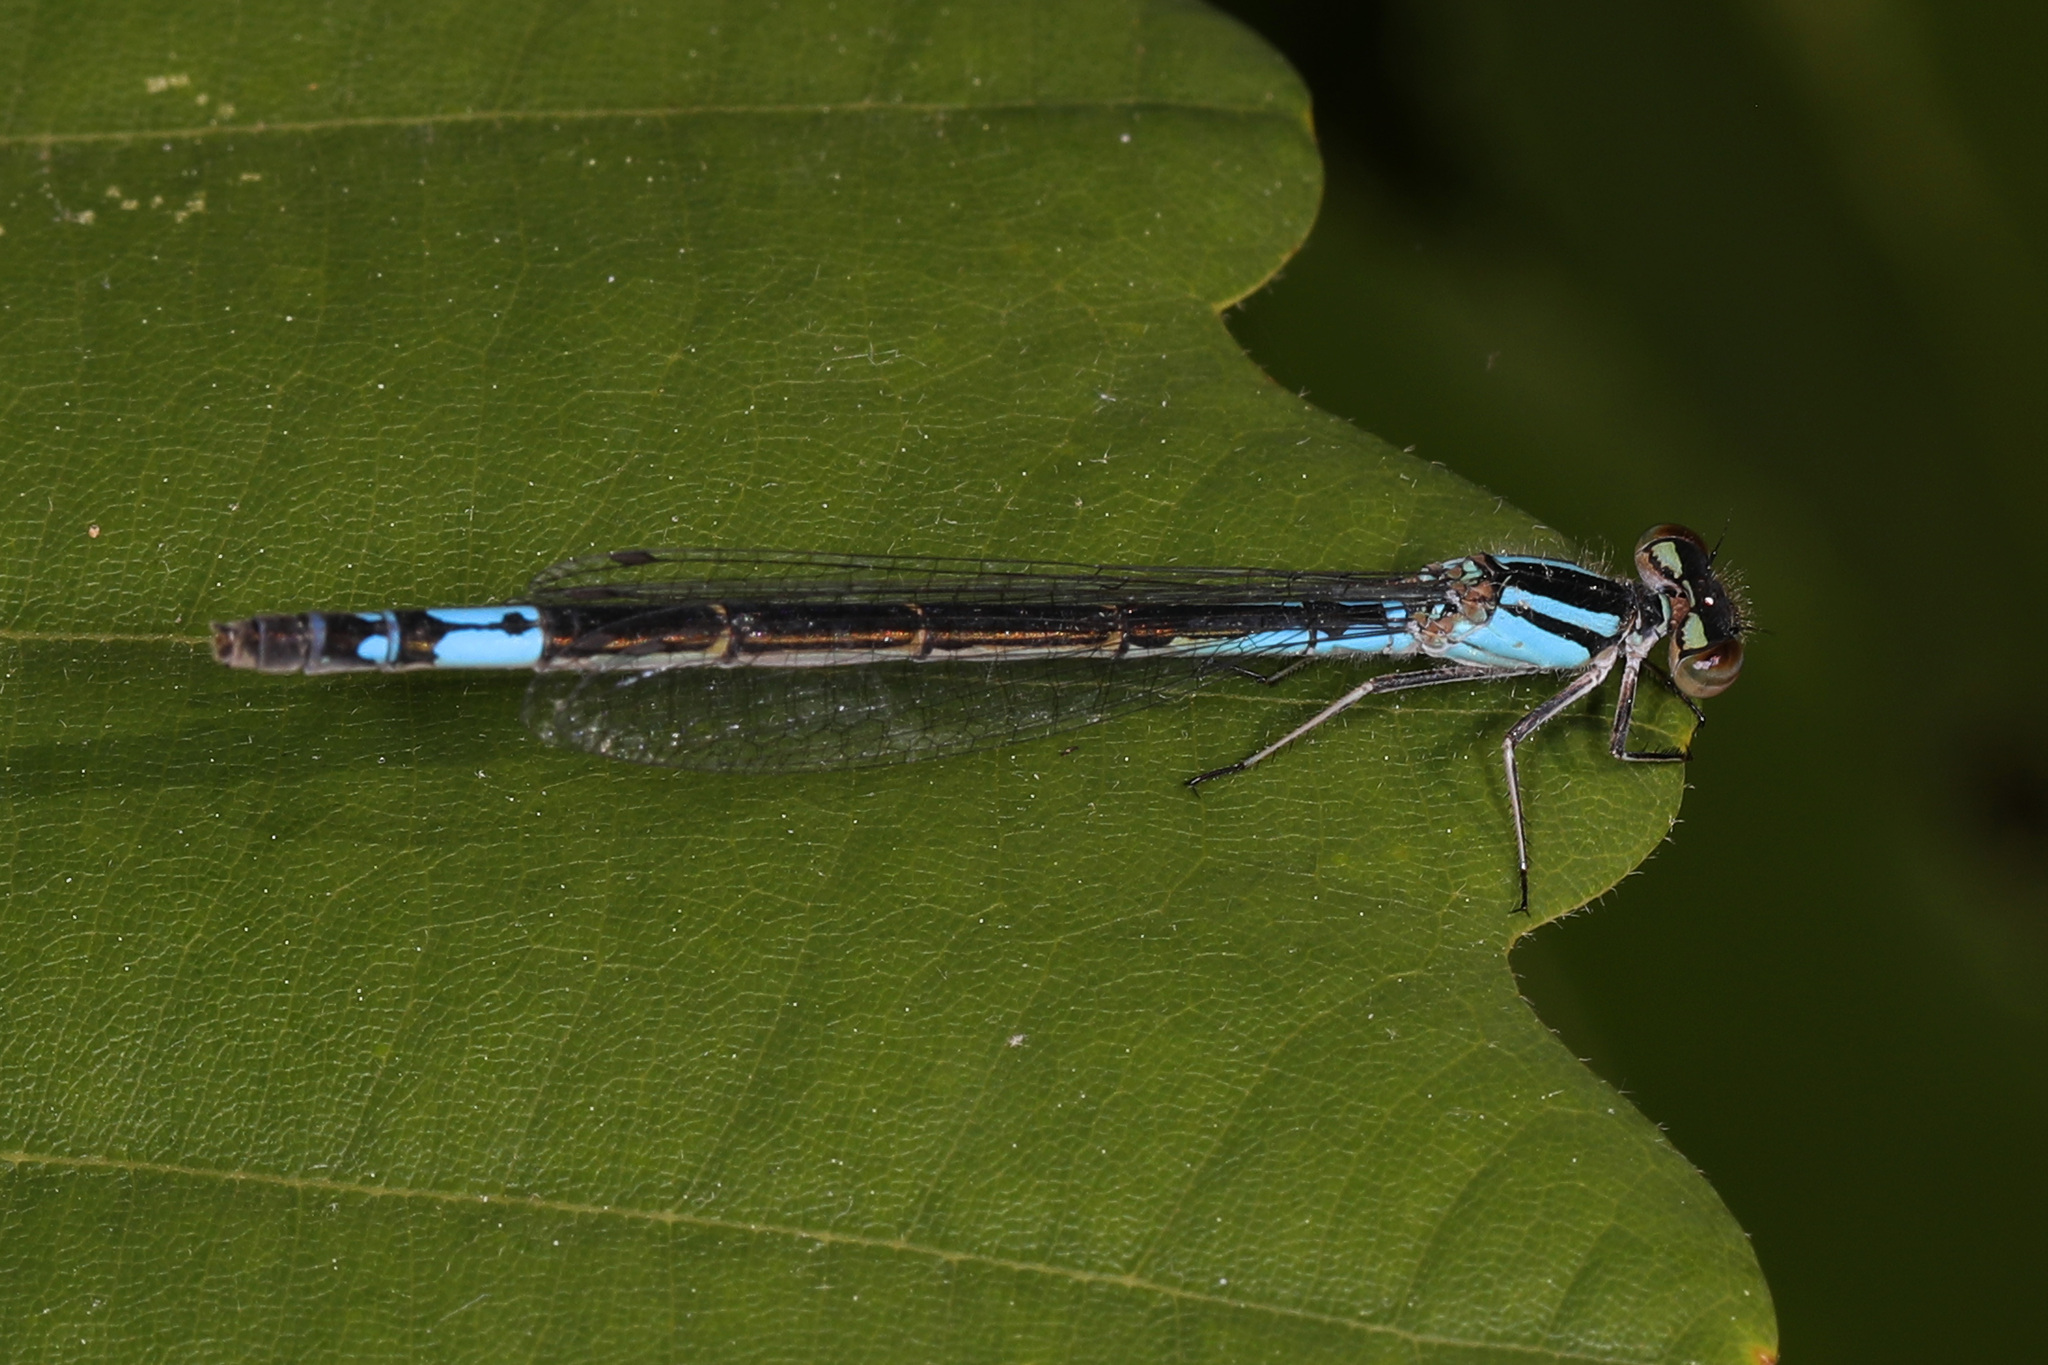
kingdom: Animalia
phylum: Arthropoda
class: Insecta
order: Odonata
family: Coenagrionidae
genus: Enallagma
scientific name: Enallagma aspersum
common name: Azure bluet
